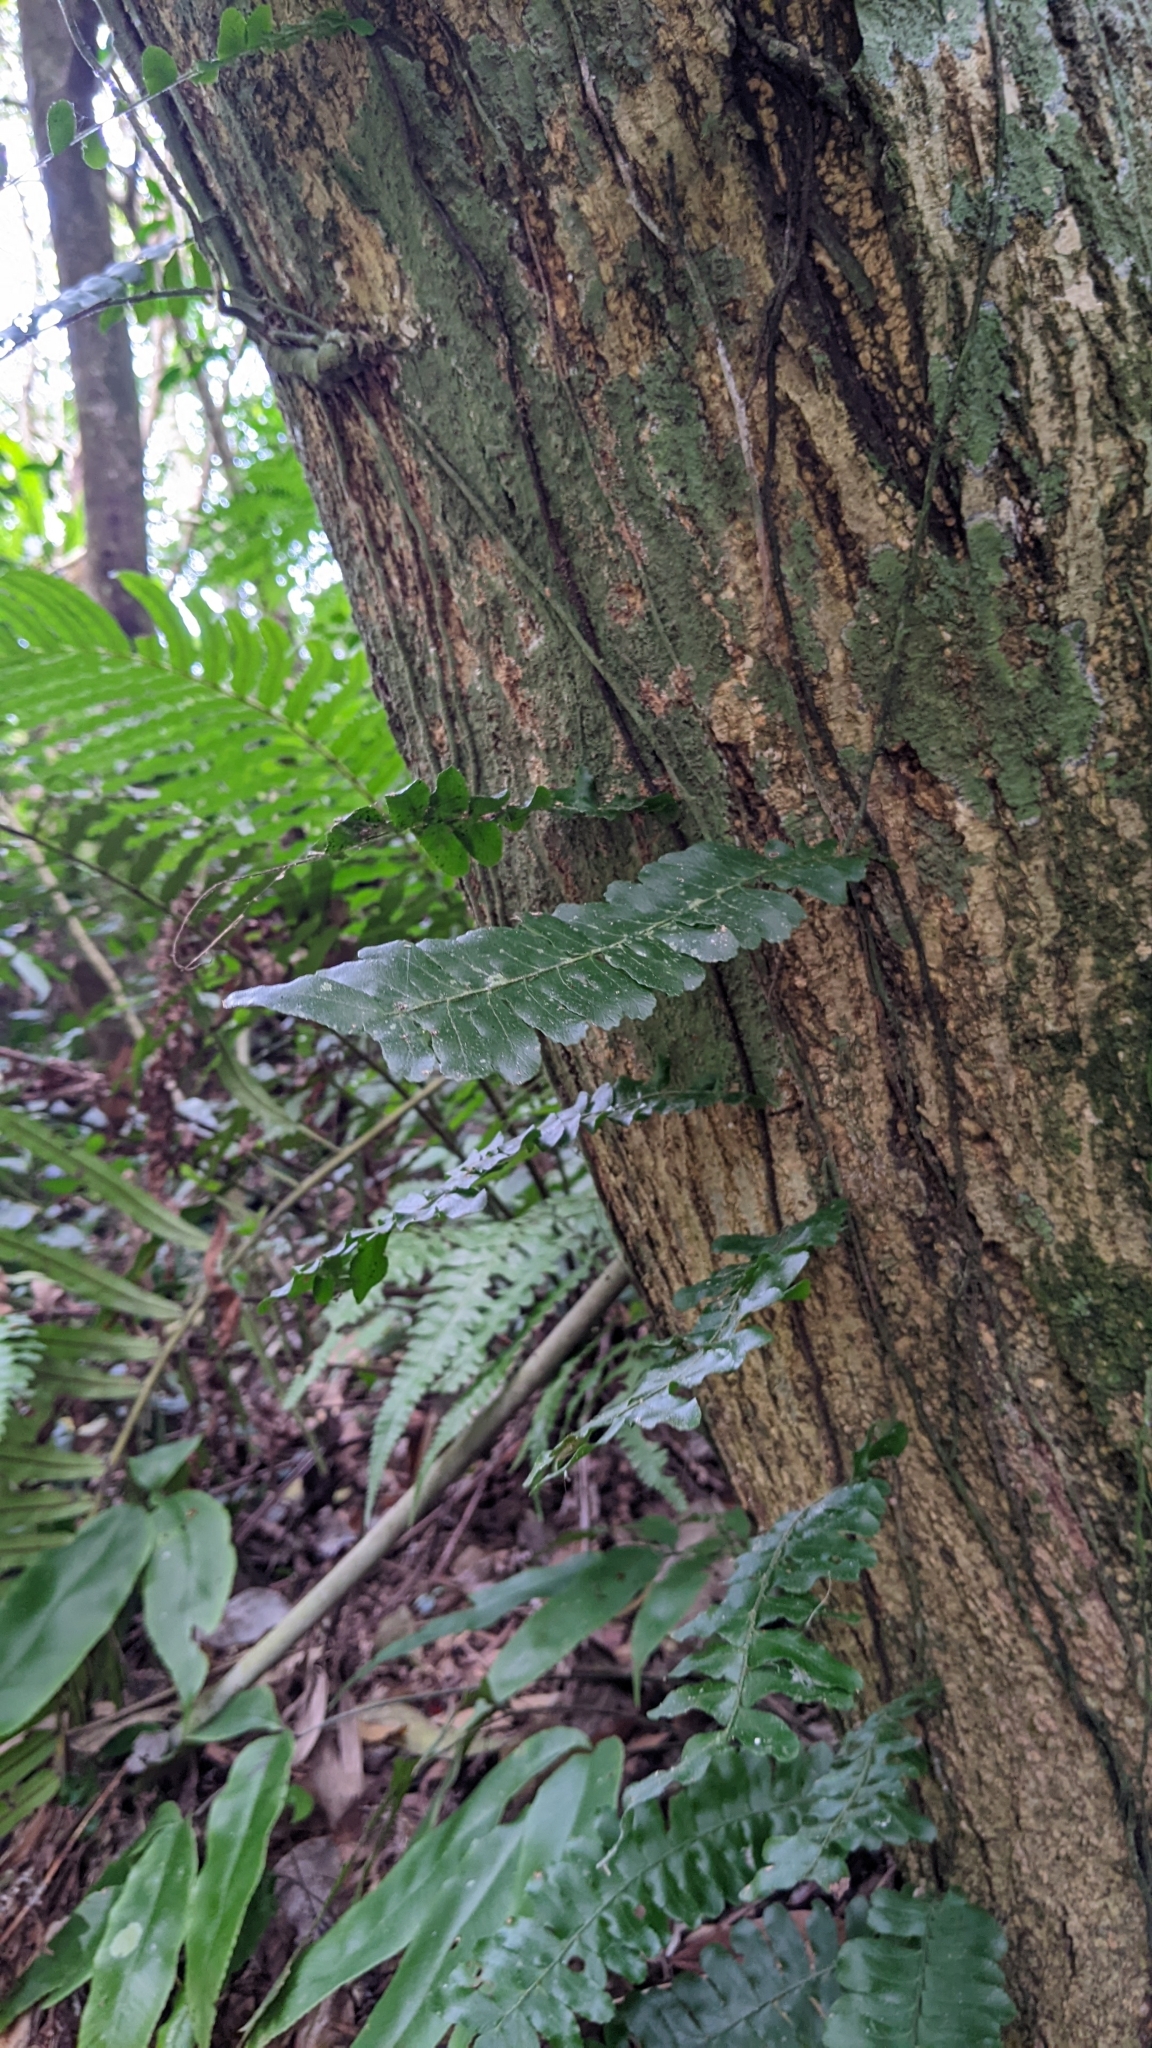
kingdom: Plantae
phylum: Tracheophyta
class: Polypodiopsida
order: Polypodiales
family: Tectariaceae
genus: Arthropteris
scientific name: Arthropteris palisotii
